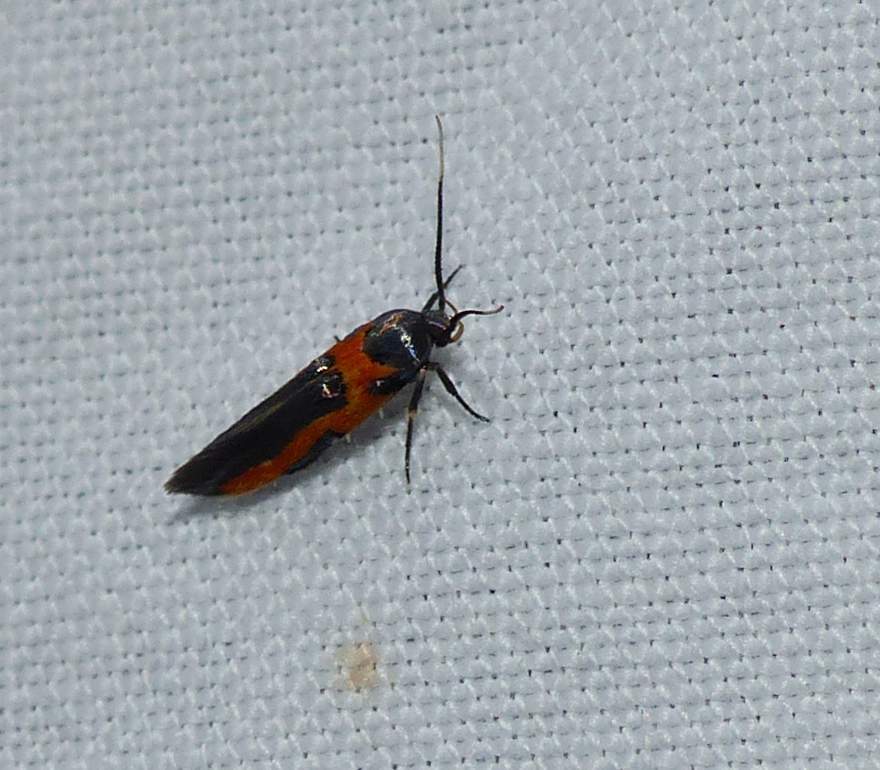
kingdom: Animalia
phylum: Arthropoda
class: Insecta
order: Lepidoptera
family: Cosmopterigidae
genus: Euclemensia
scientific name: Euclemensia bassettella
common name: Kermes scale moth
